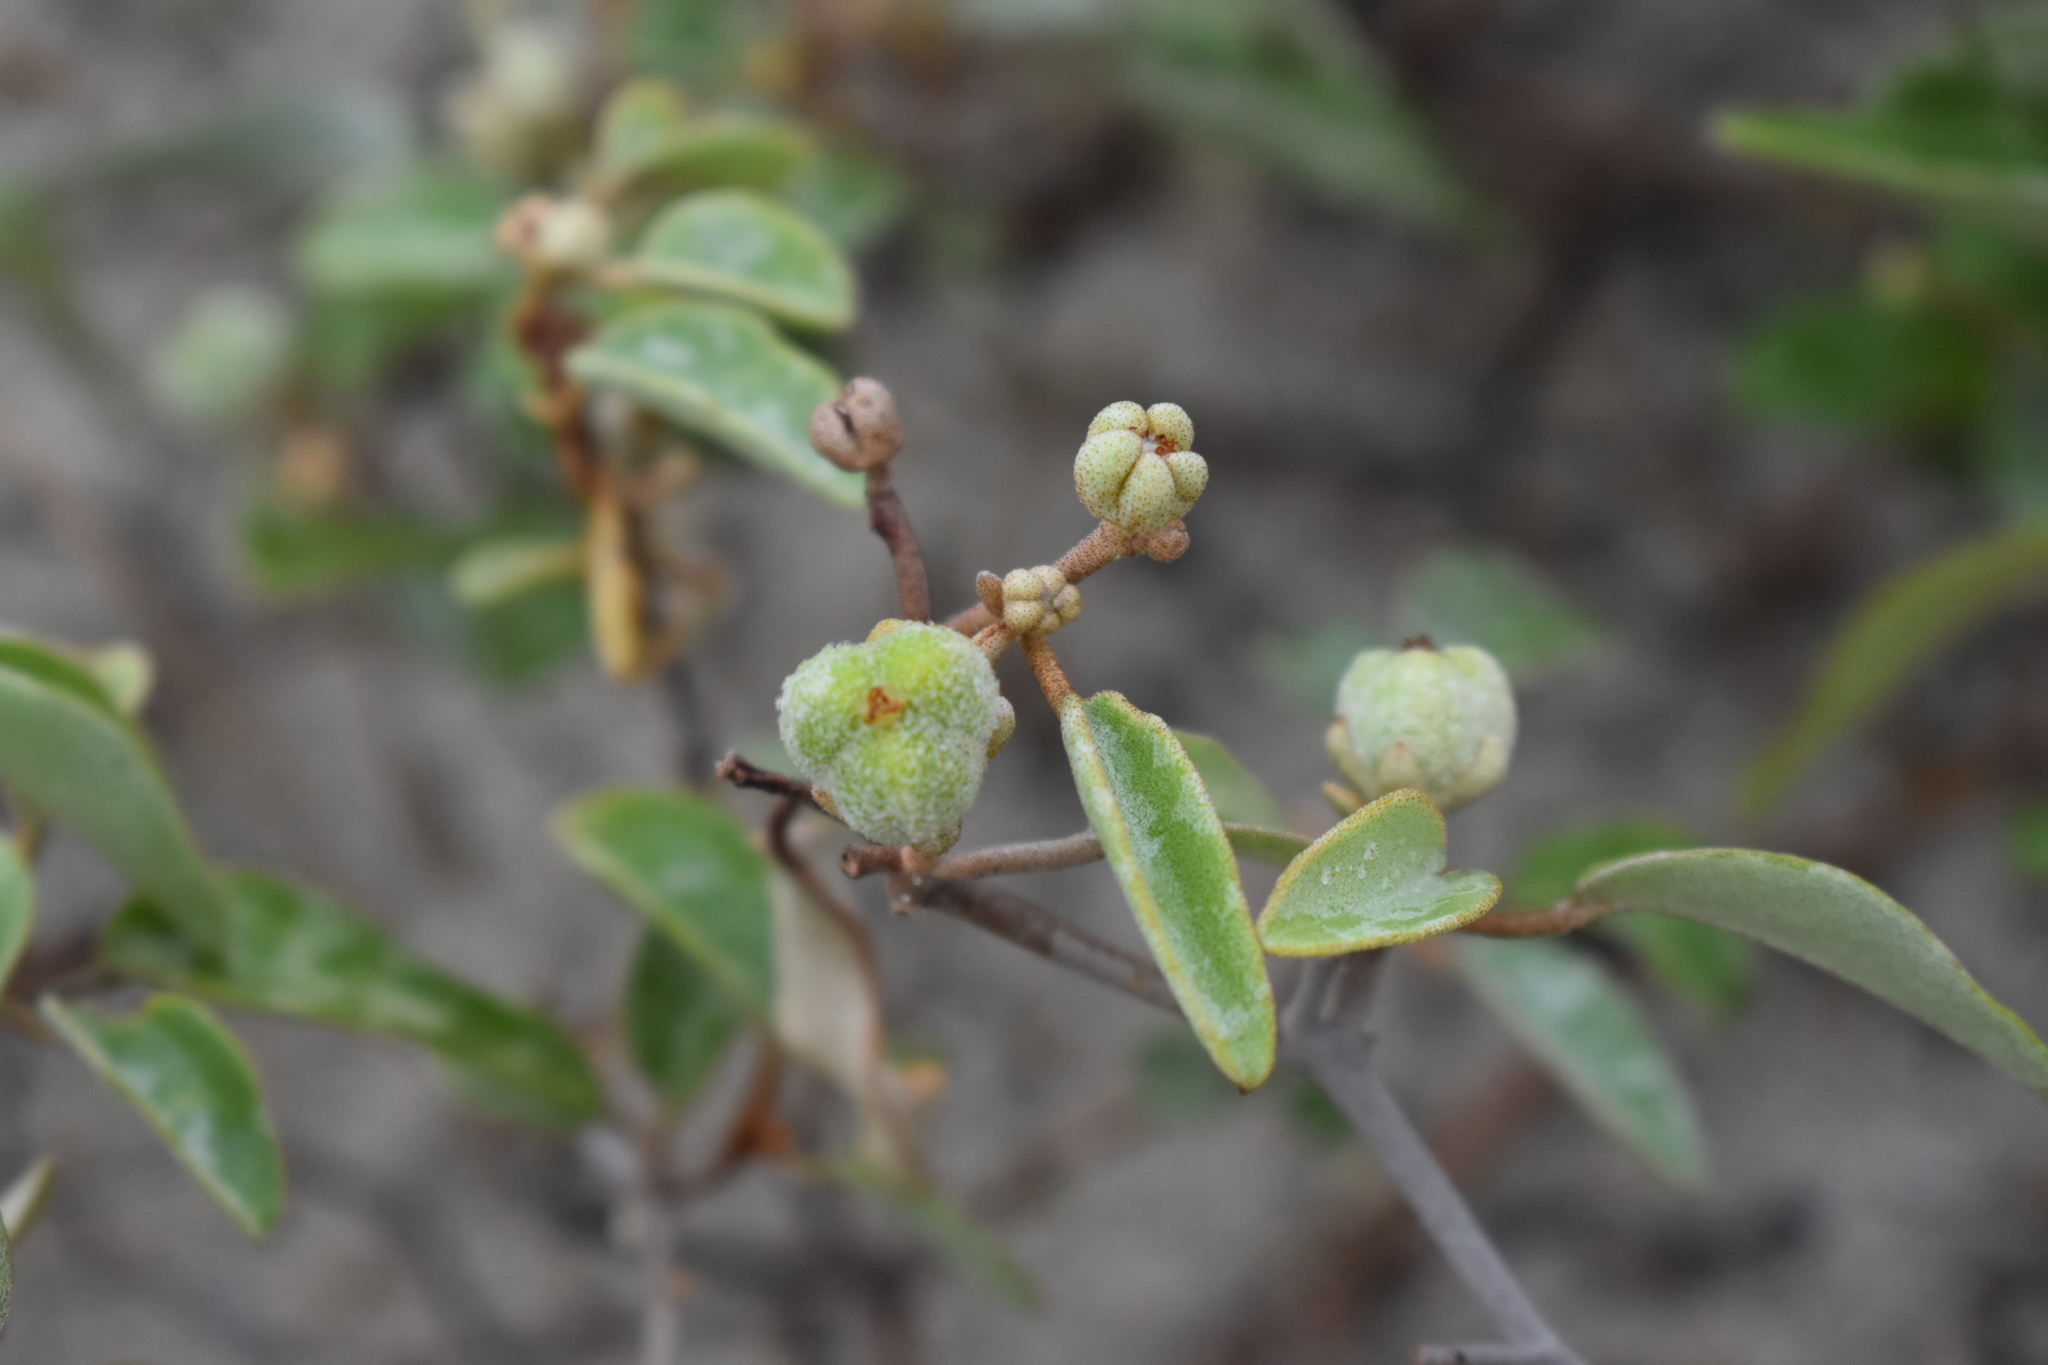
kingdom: Plantae
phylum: Tracheophyta
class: Magnoliopsida
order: Malpighiales
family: Euphorbiaceae
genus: Croton
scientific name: Croton punctatus
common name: Beach-tea
